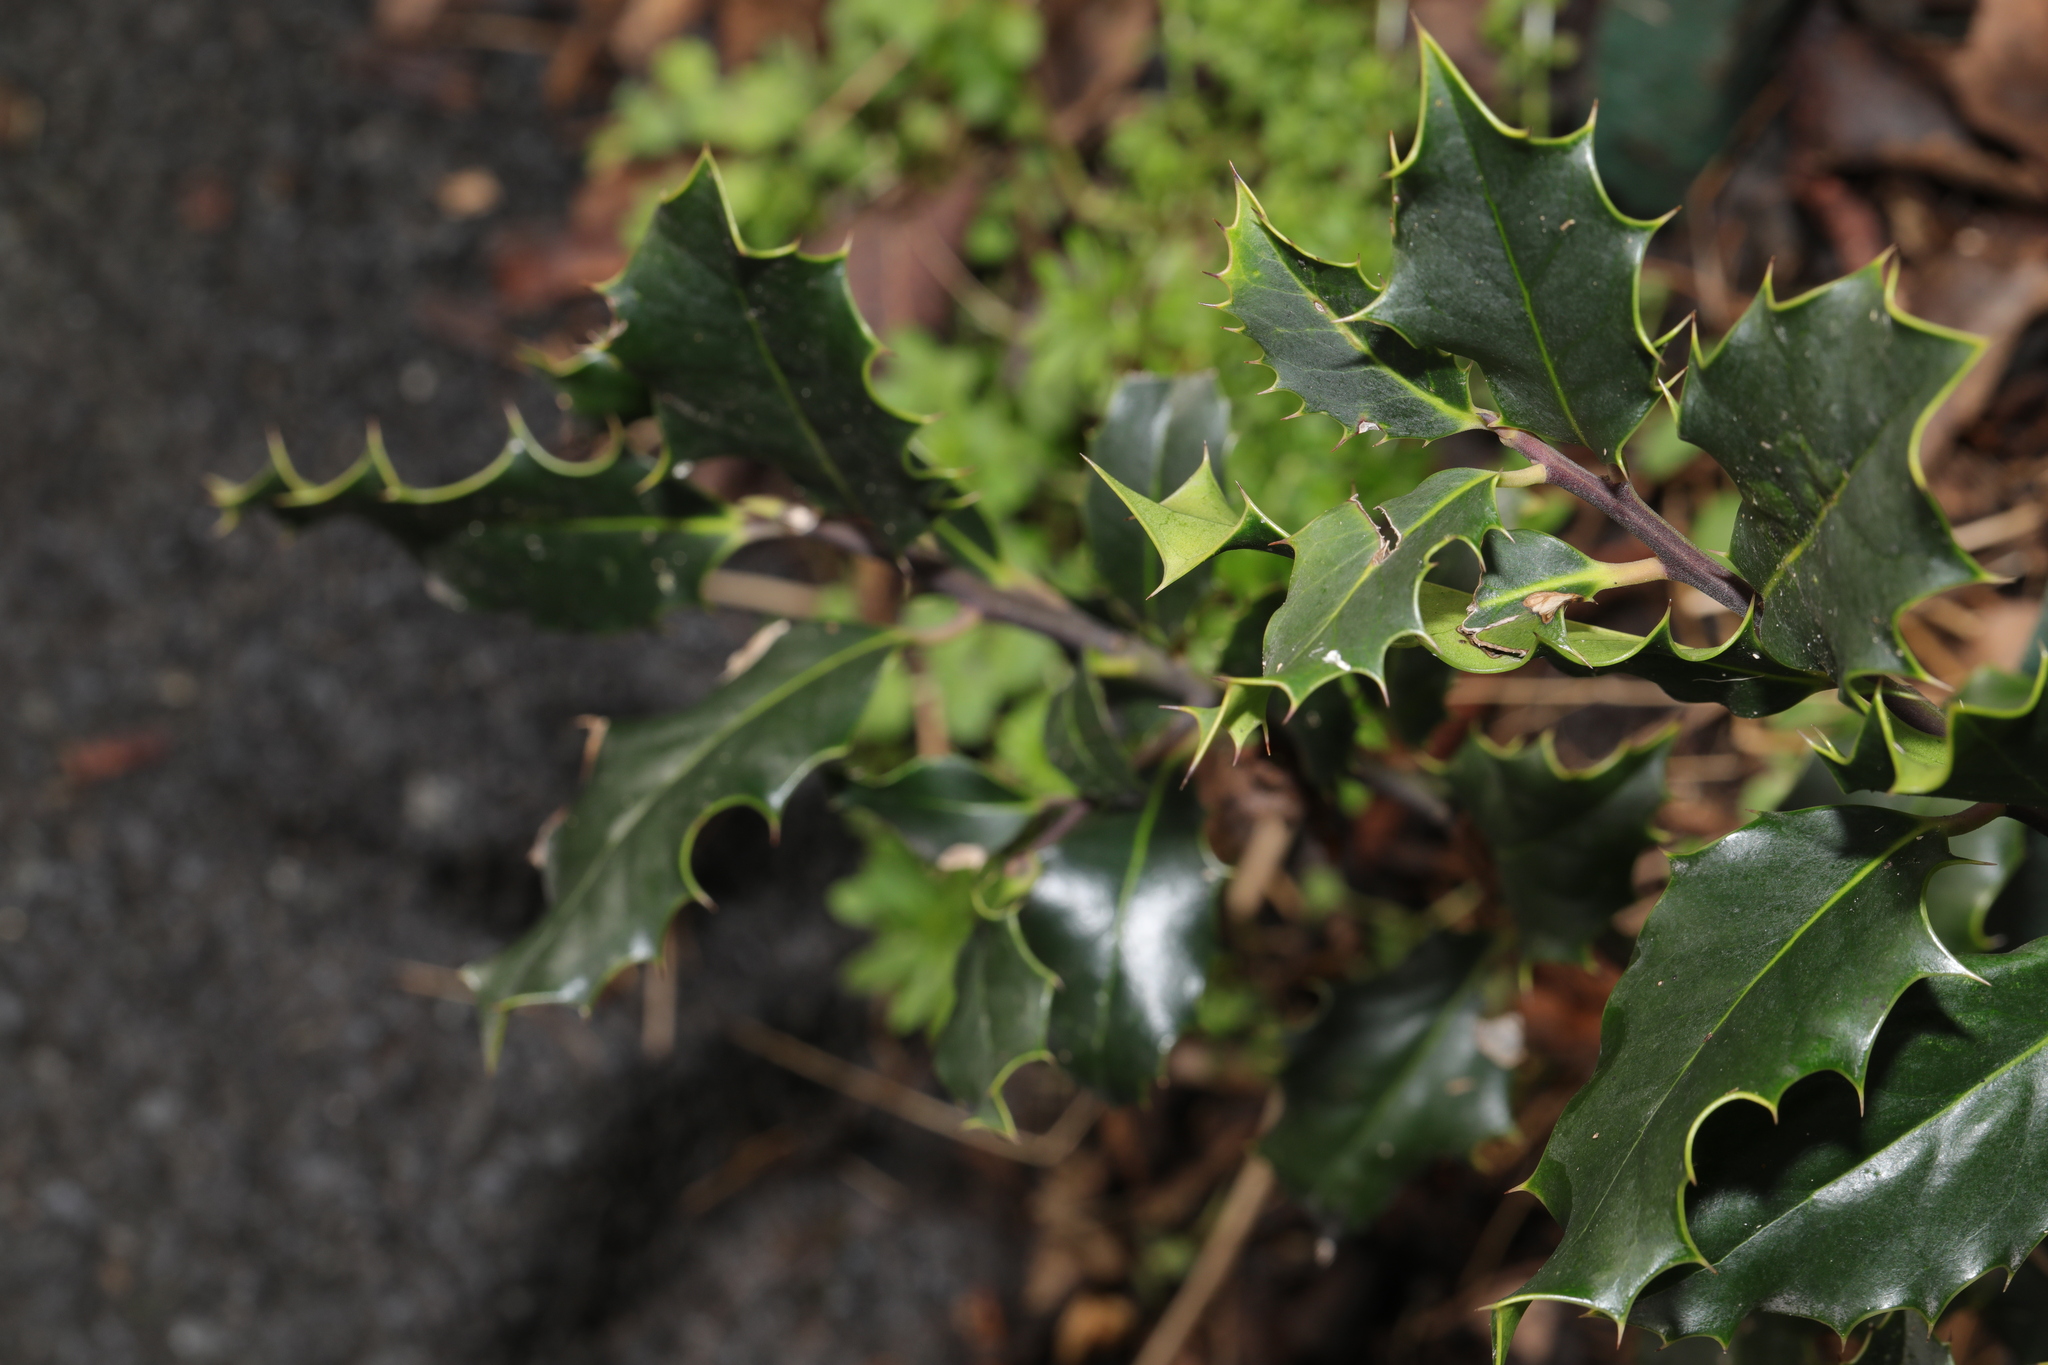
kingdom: Plantae
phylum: Tracheophyta
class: Magnoliopsida
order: Aquifoliales
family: Aquifoliaceae
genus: Ilex
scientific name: Ilex aquifolium
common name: English holly
